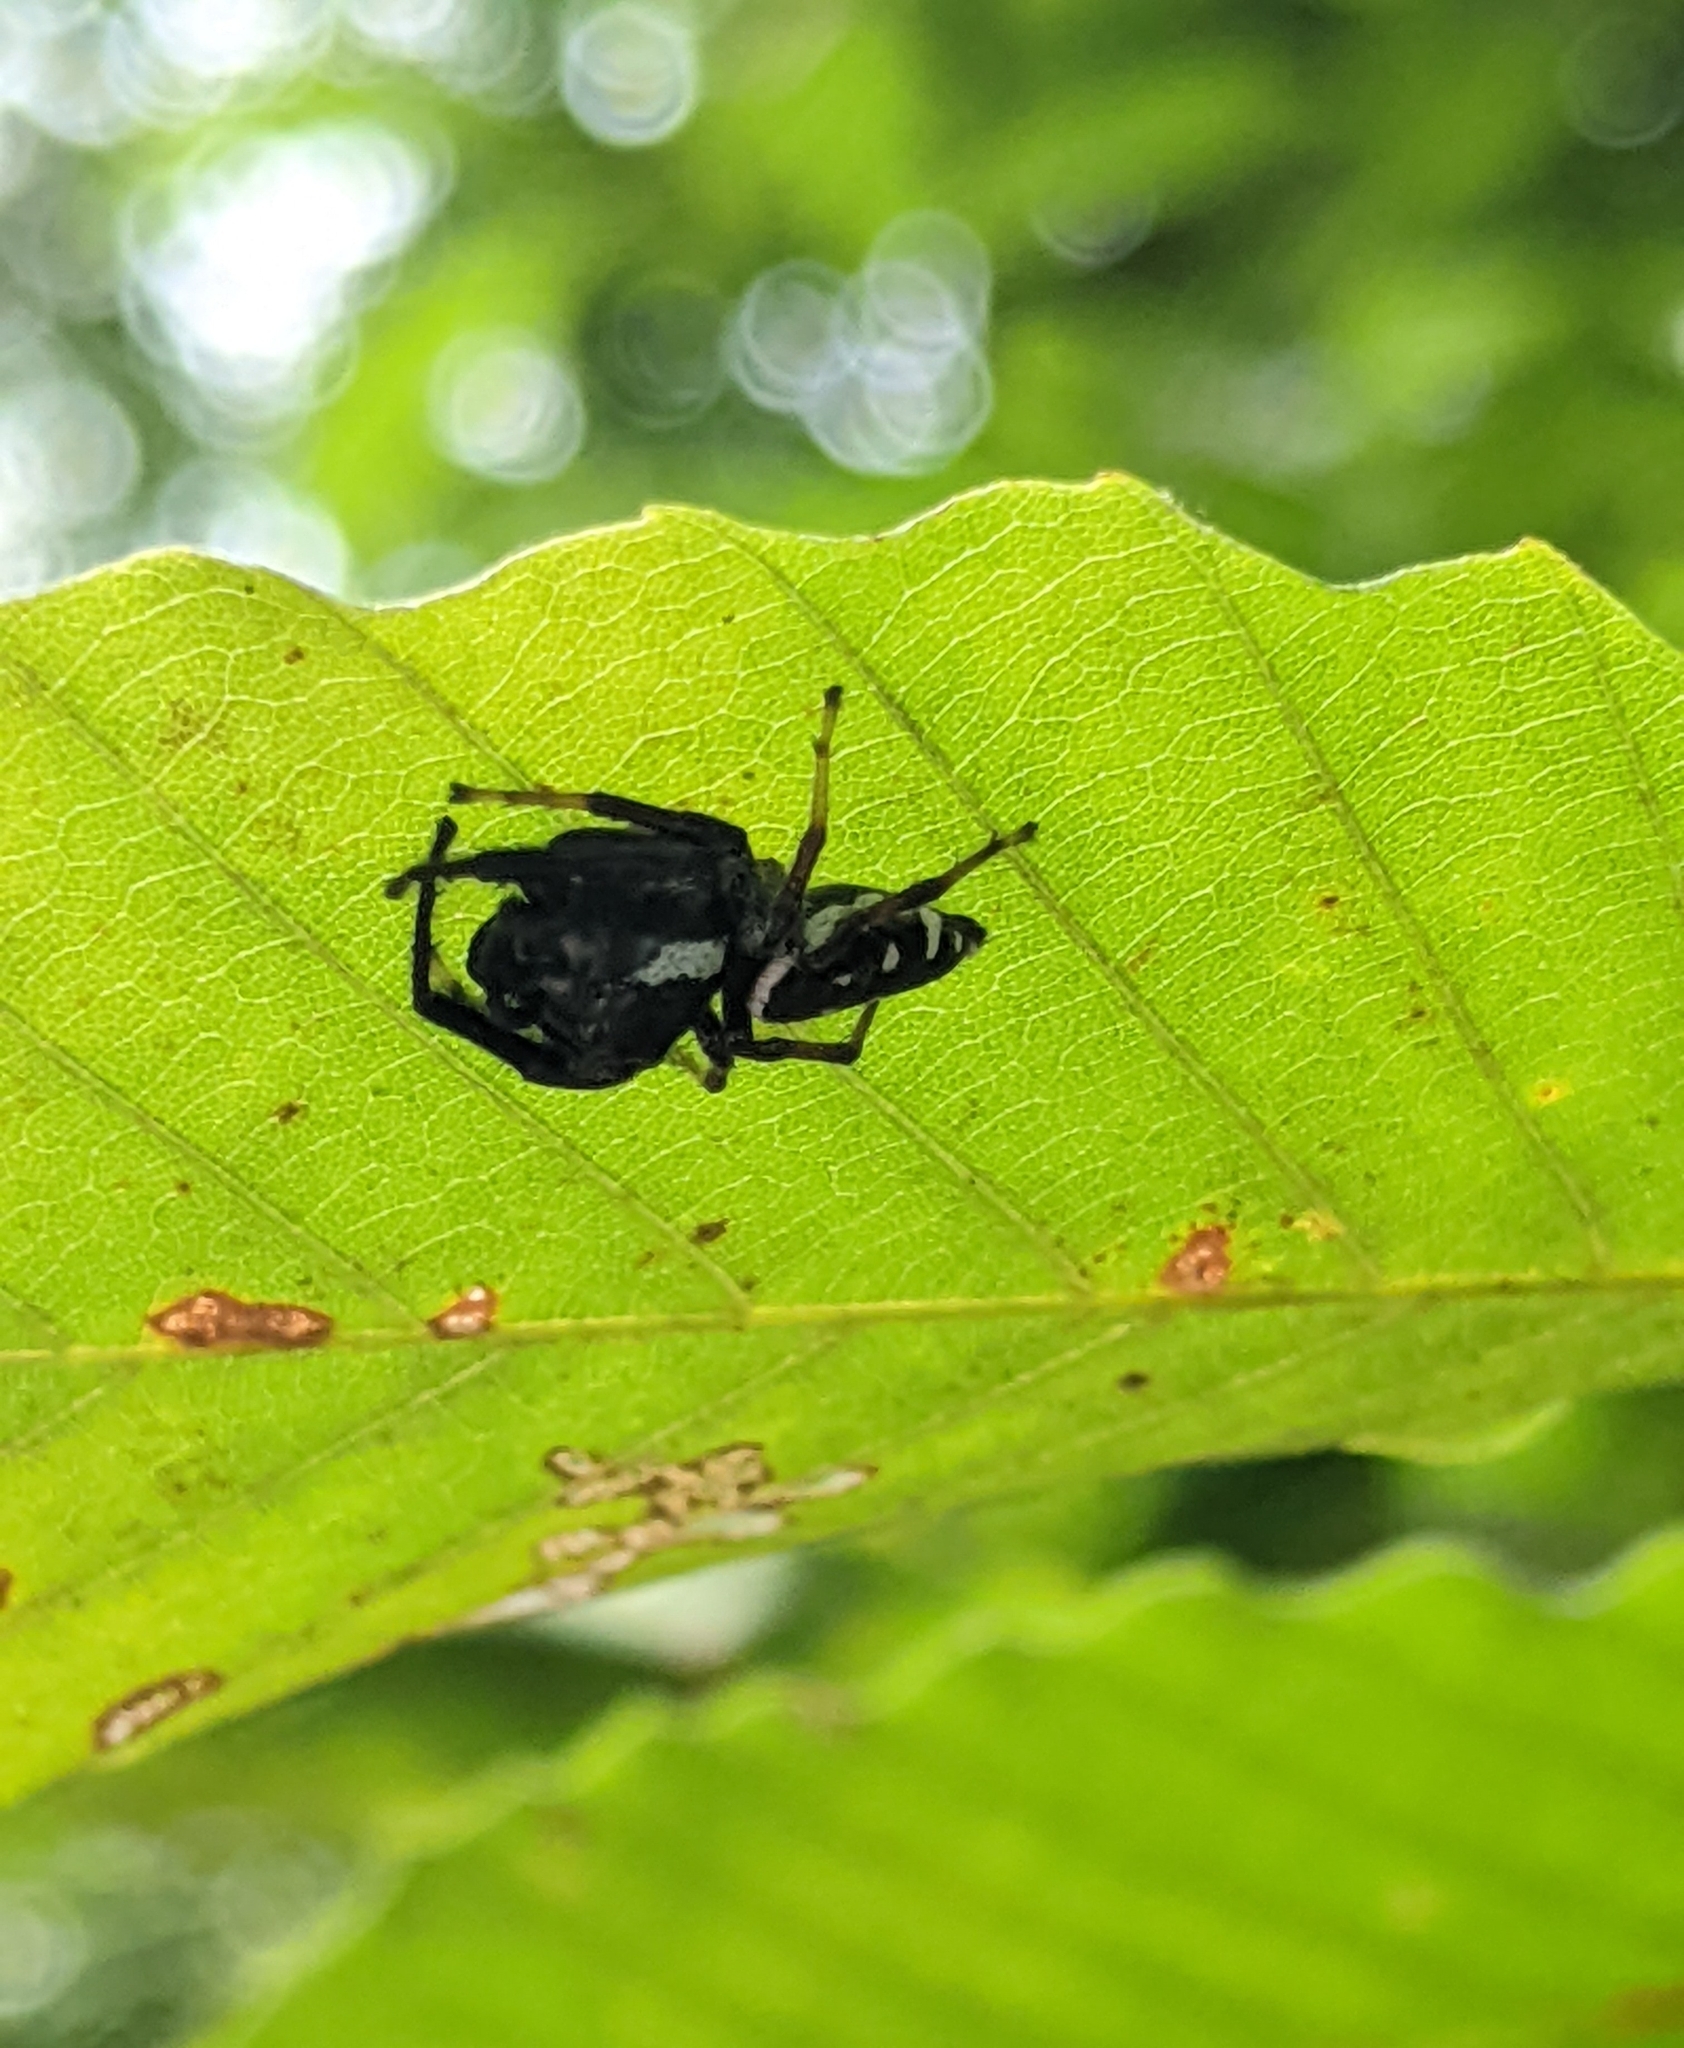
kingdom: Animalia
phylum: Arthropoda
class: Arachnida
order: Araneae
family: Salticidae
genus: Paraphidippus
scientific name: Paraphidippus aurantius
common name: Jumping spiders
